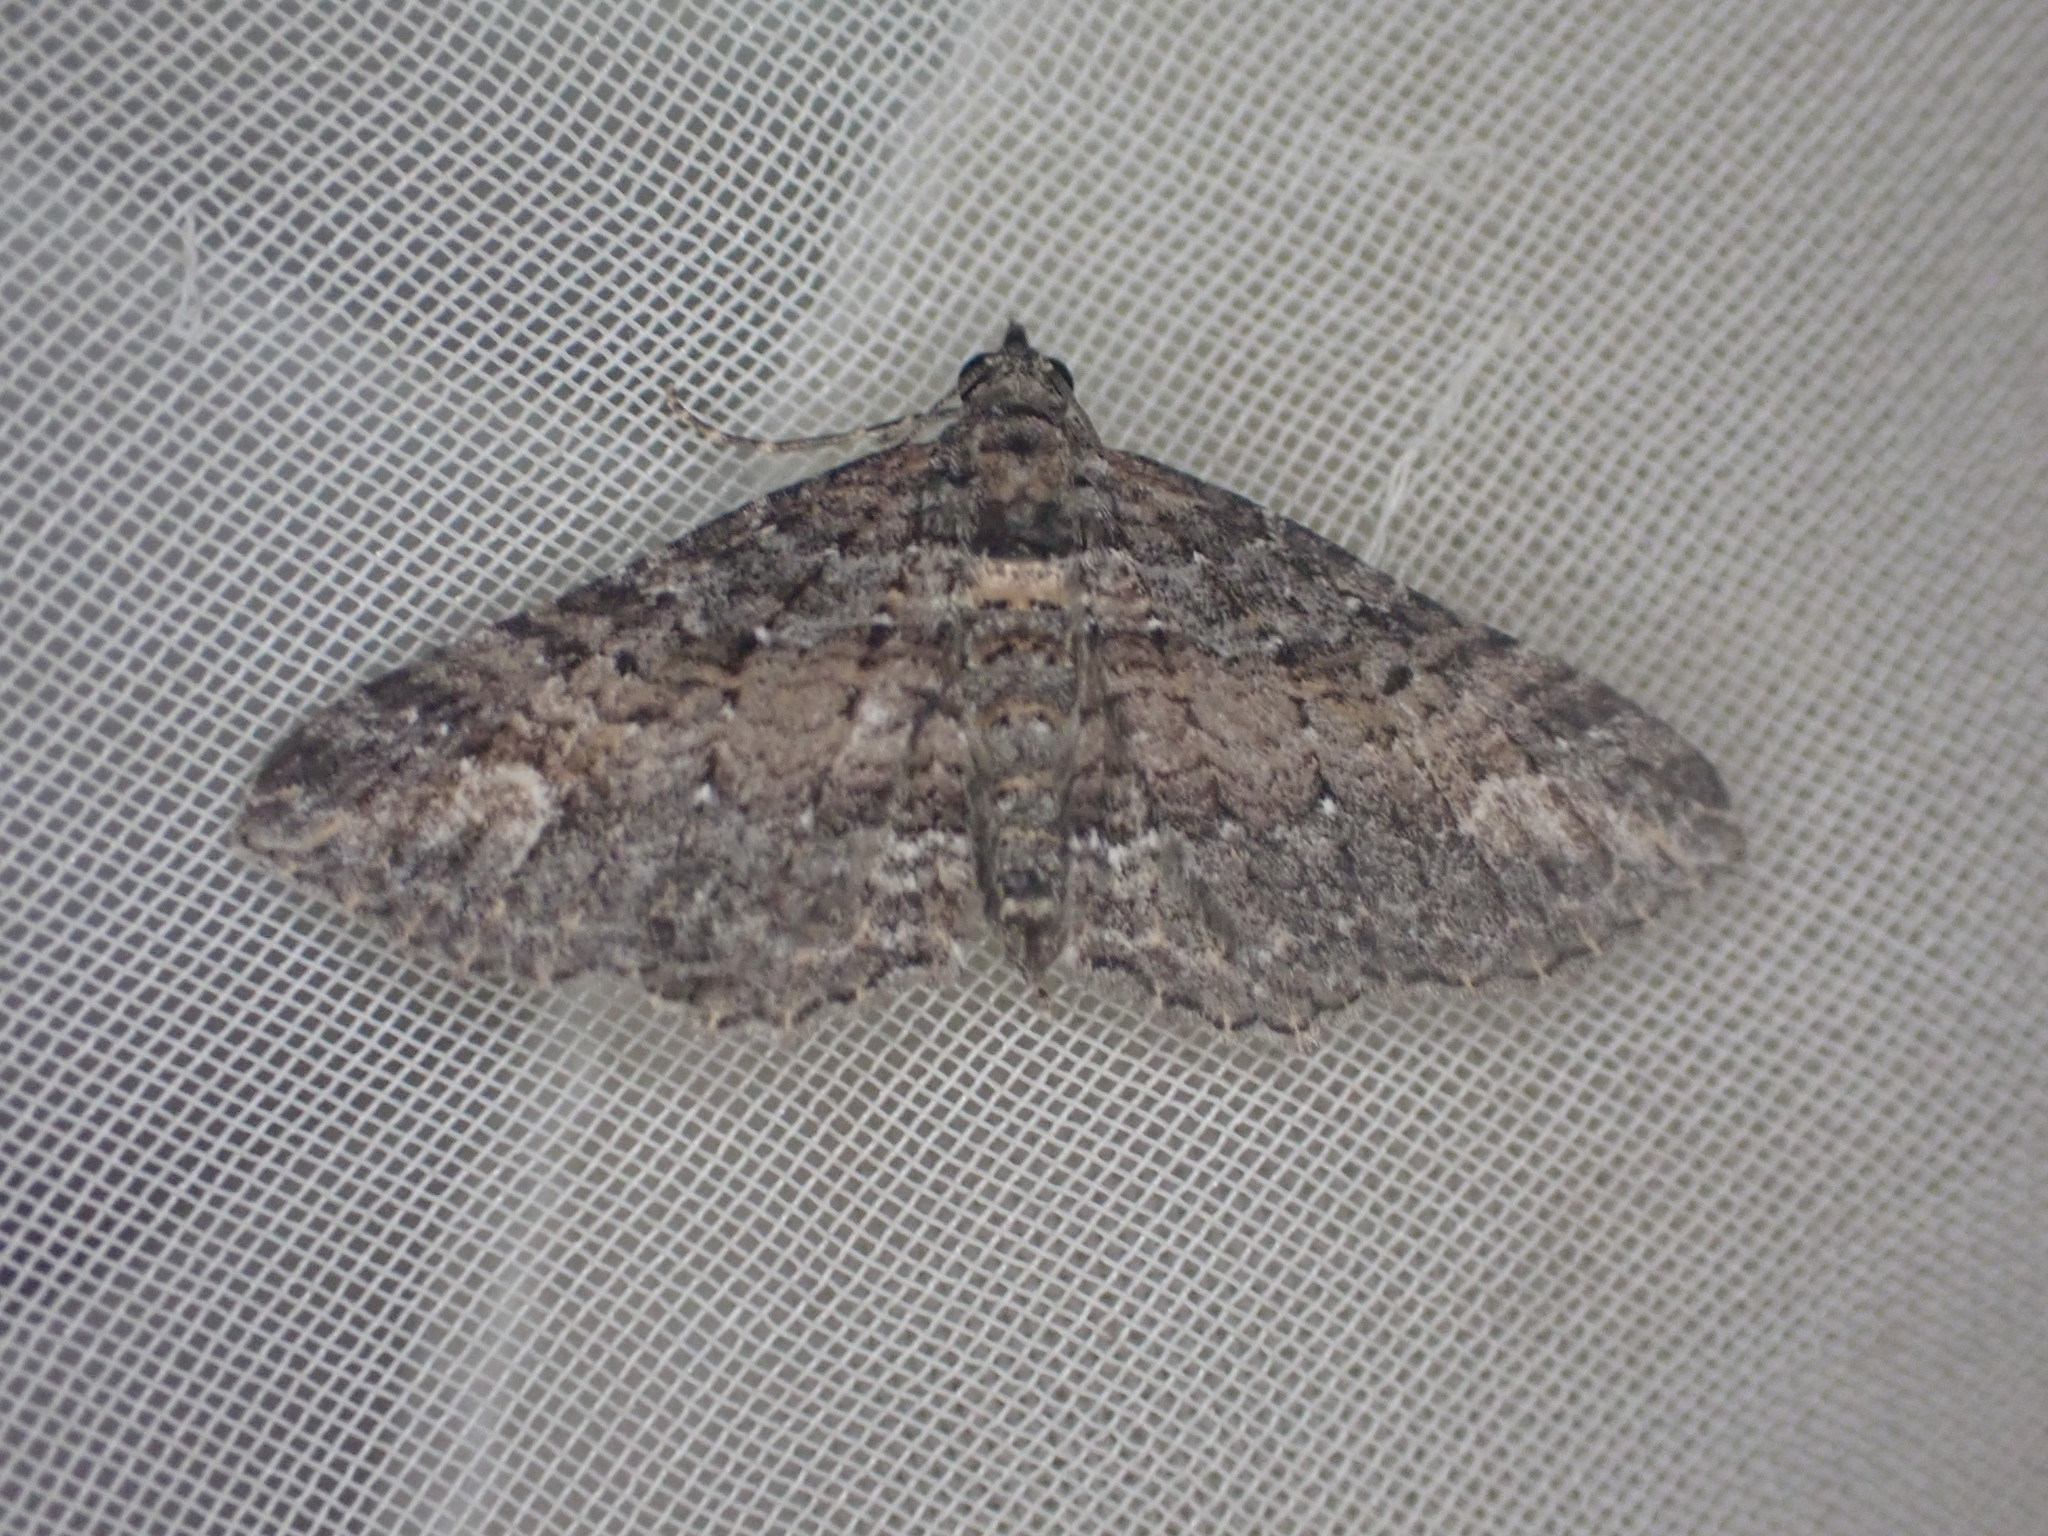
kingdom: Animalia
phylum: Arthropoda
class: Insecta
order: Lepidoptera
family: Geometridae
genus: Horisme
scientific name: Horisme suppressaria
